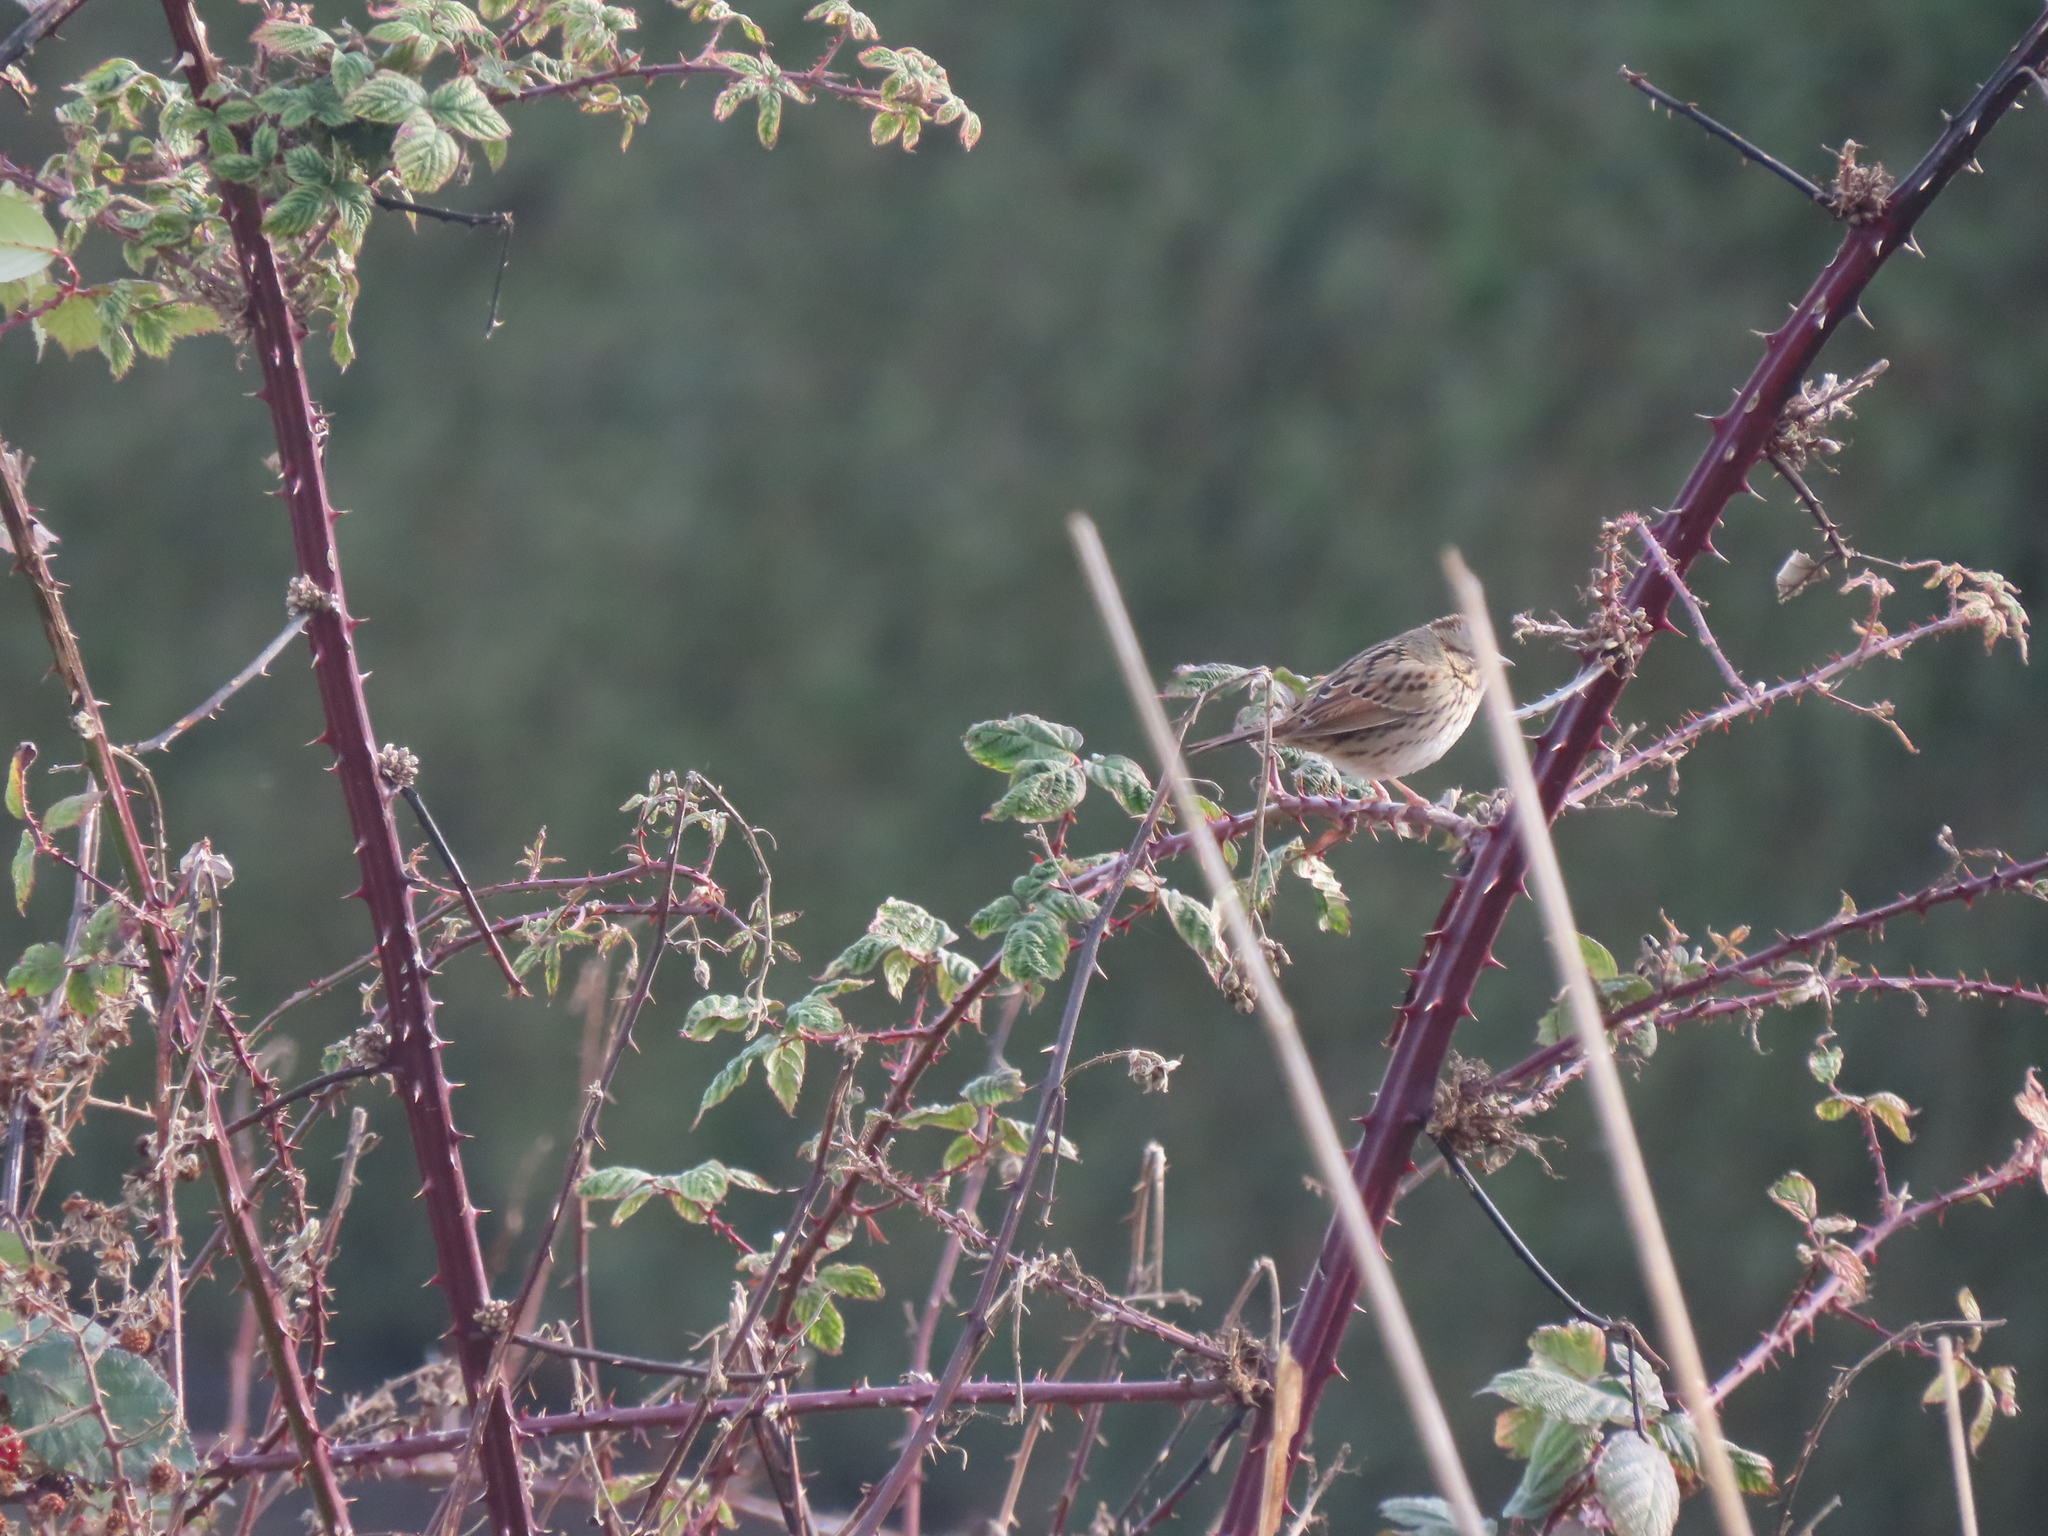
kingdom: Animalia
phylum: Chordata
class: Aves
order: Passeriformes
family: Passerellidae
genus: Melospiza
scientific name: Melospiza lincolnii
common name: Lincoln's sparrow
